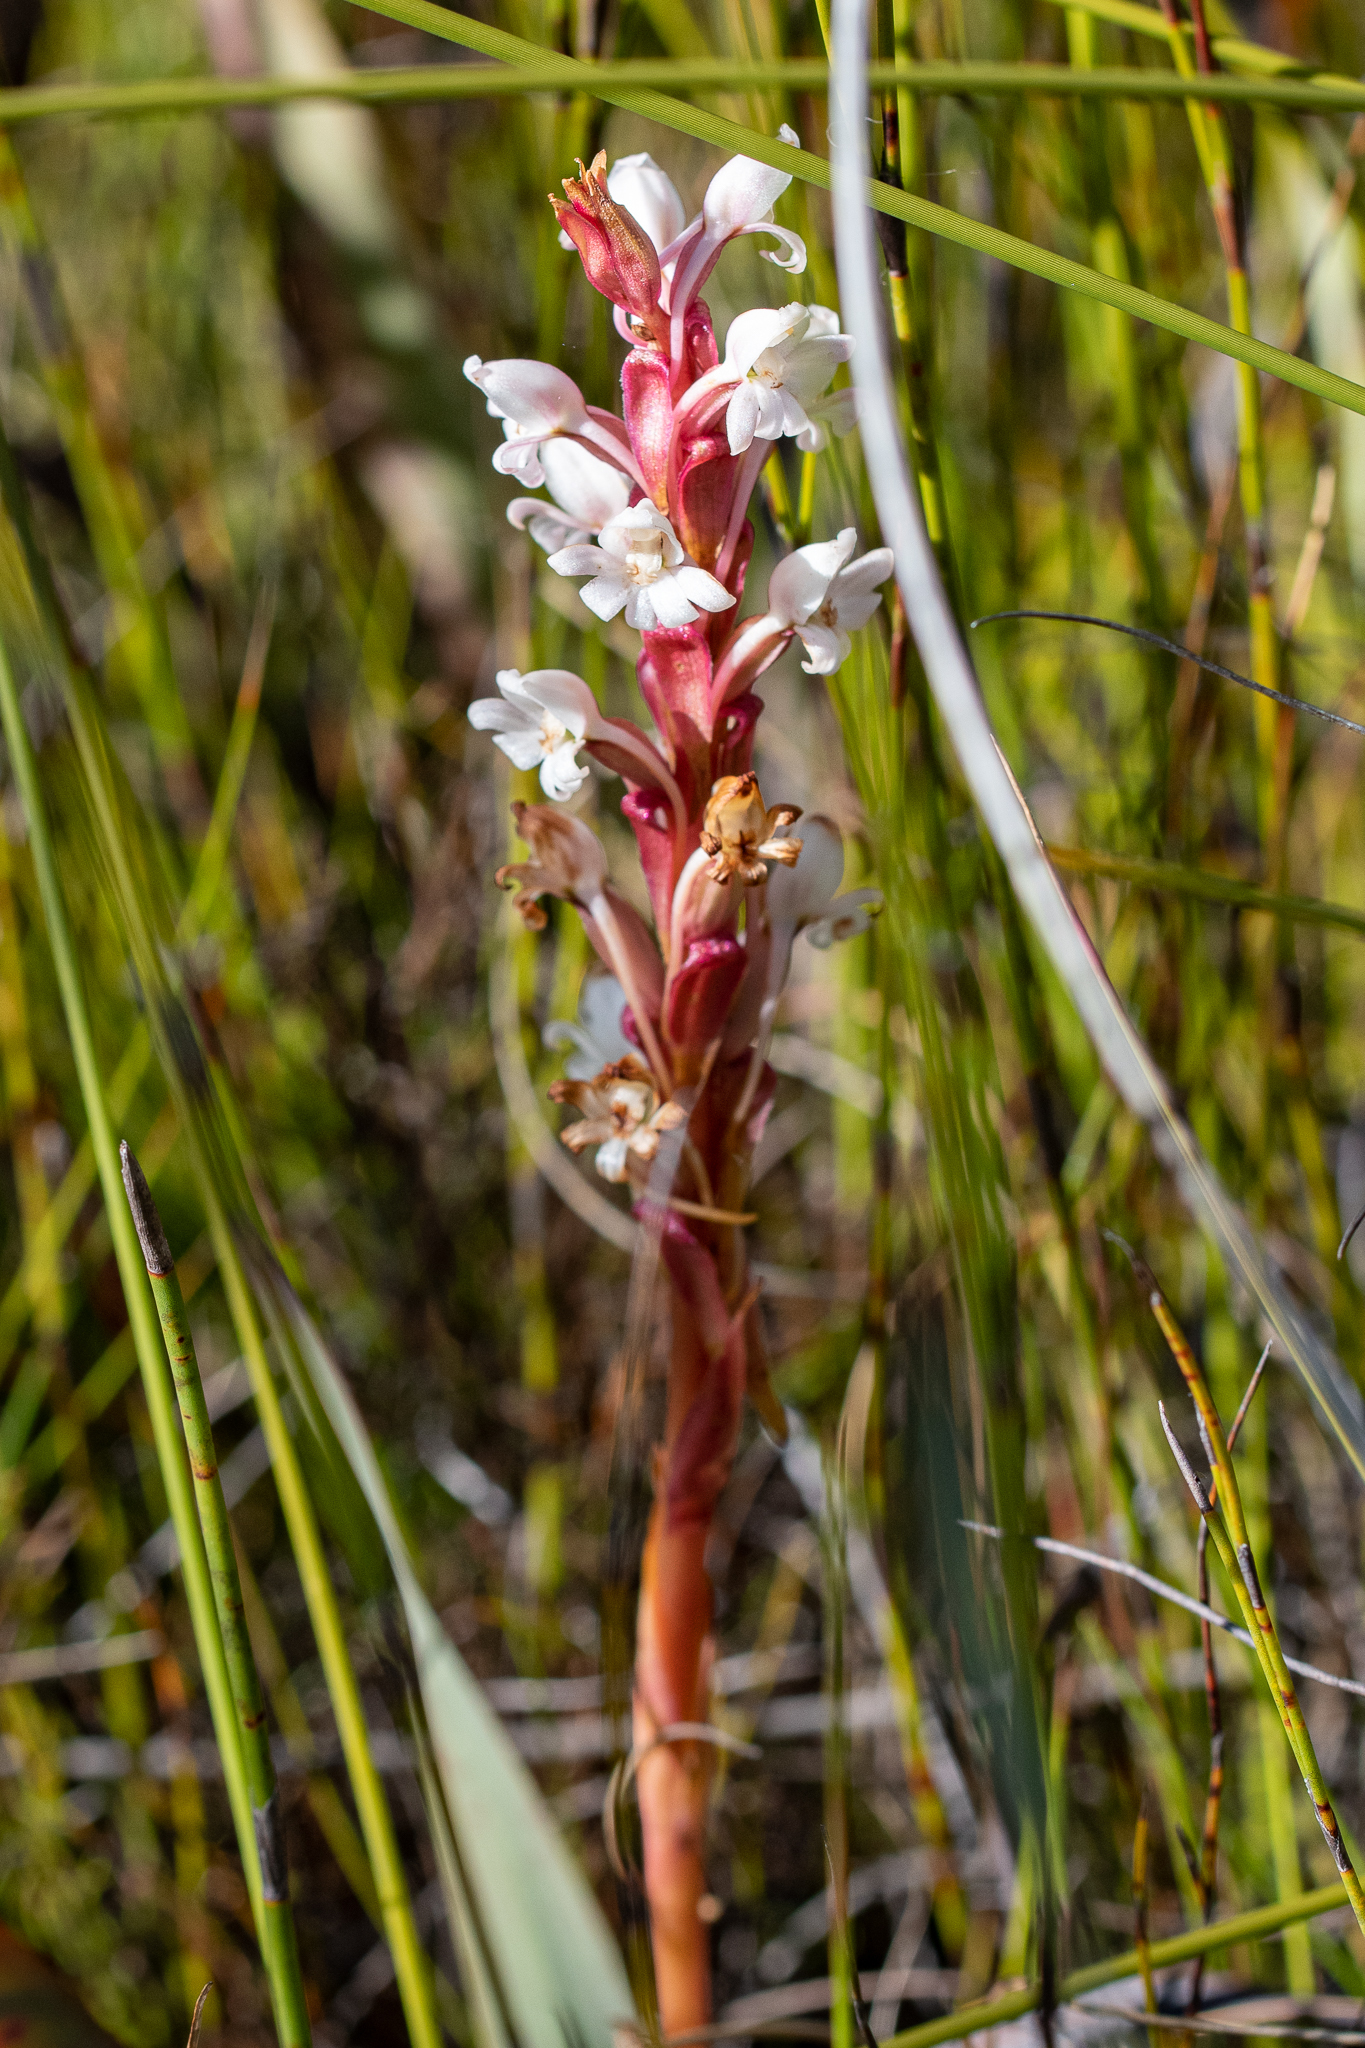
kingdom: Plantae
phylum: Tracheophyta
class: Liliopsida
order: Asparagales
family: Orchidaceae
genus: Satyrium
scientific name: Satyrium acuminatum
